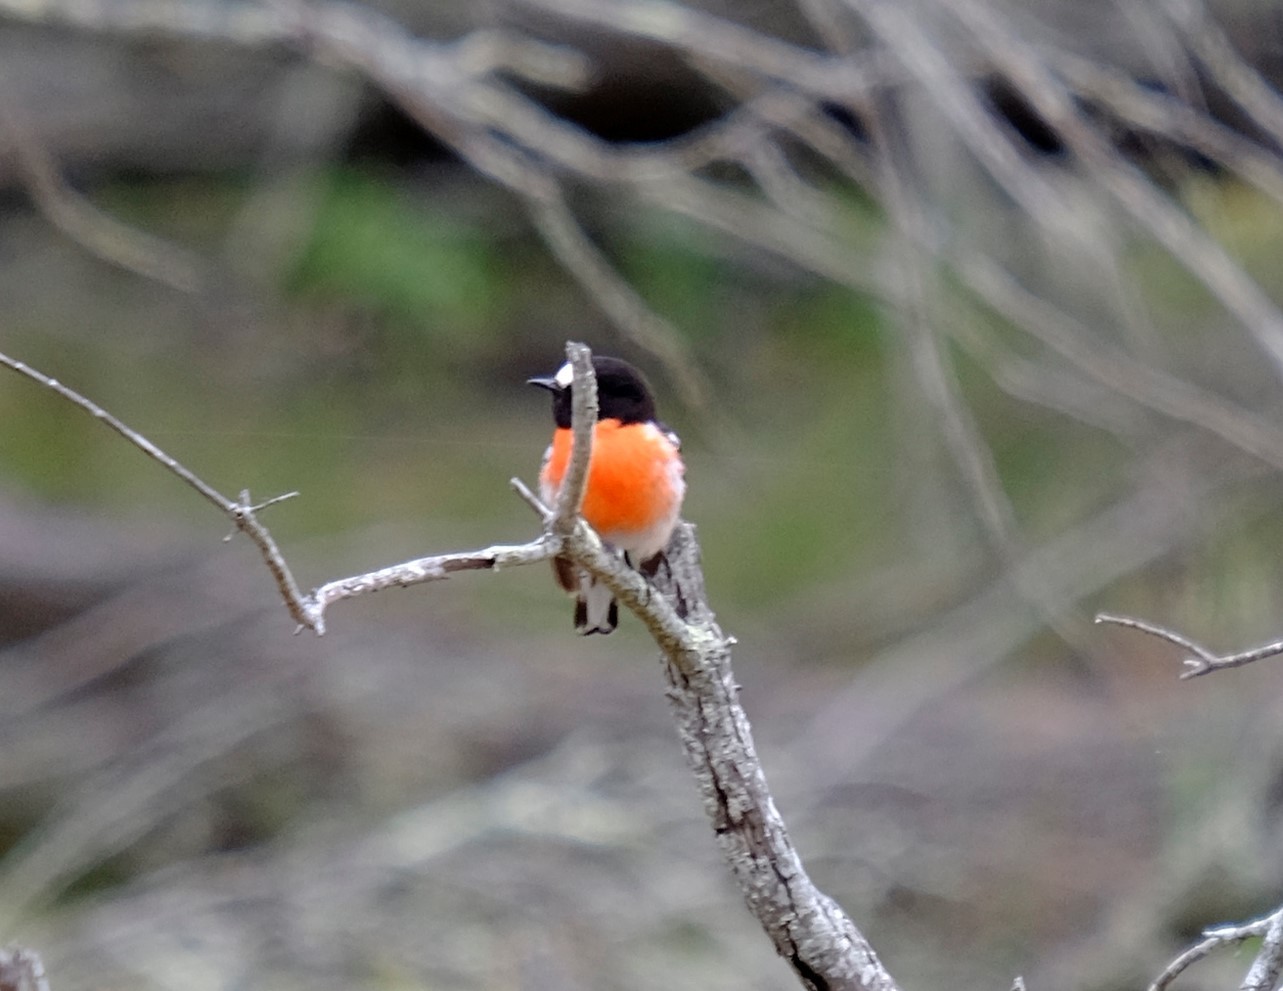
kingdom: Animalia
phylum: Chordata
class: Aves
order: Passeriformes
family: Petroicidae
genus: Petroica
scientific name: Petroica boodang
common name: Scarlet robin
